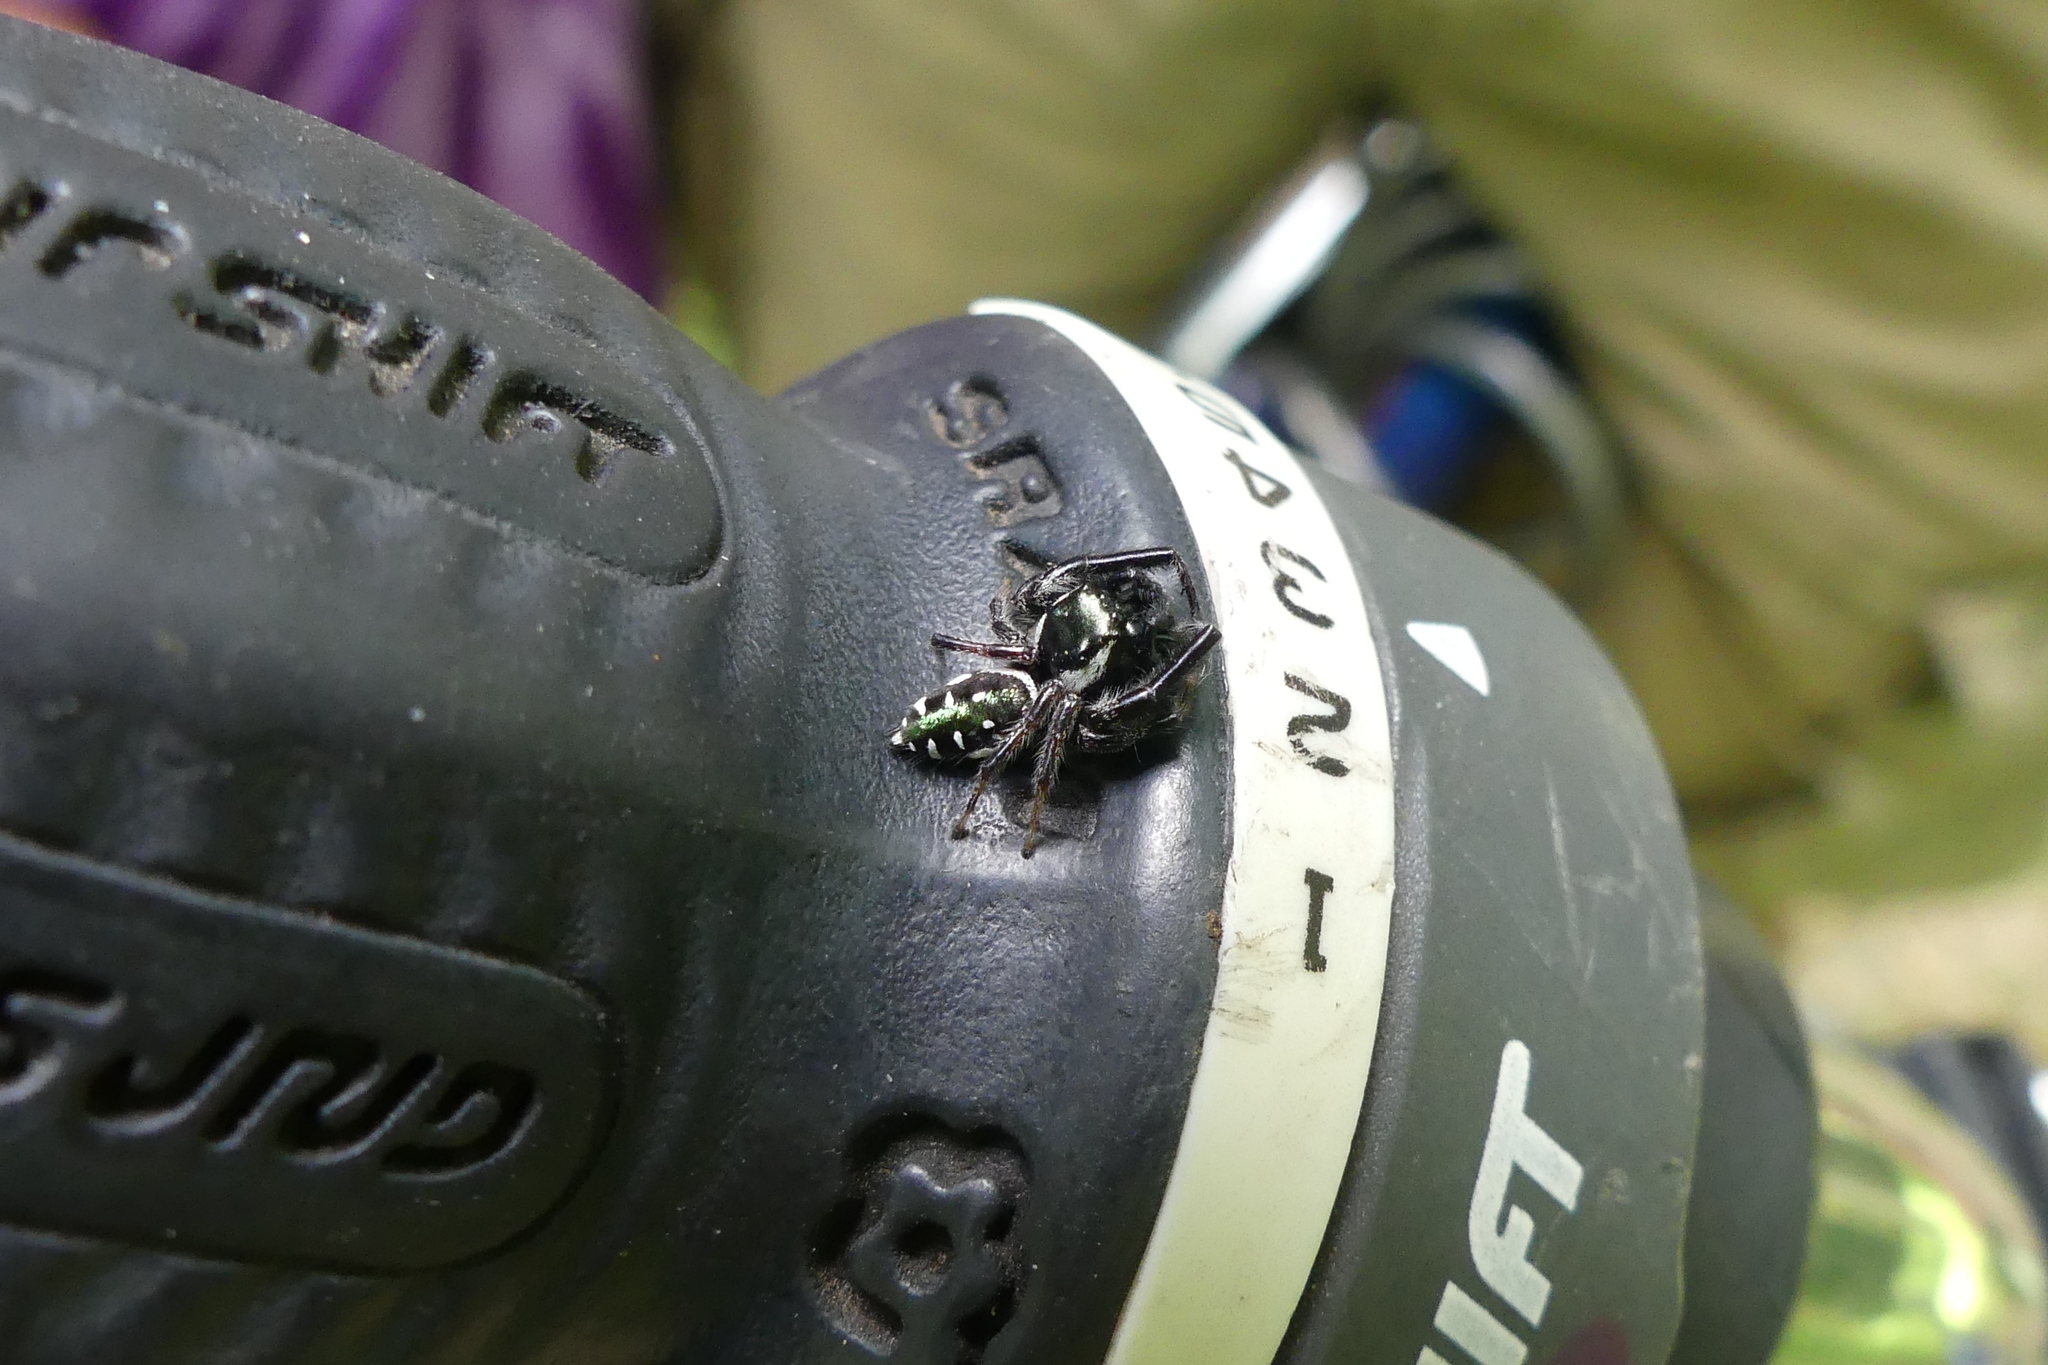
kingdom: Animalia
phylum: Arthropoda
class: Arachnida
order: Araneae
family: Salticidae
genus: Paraphidippus
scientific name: Paraphidippus aurantius
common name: Jumping spiders
